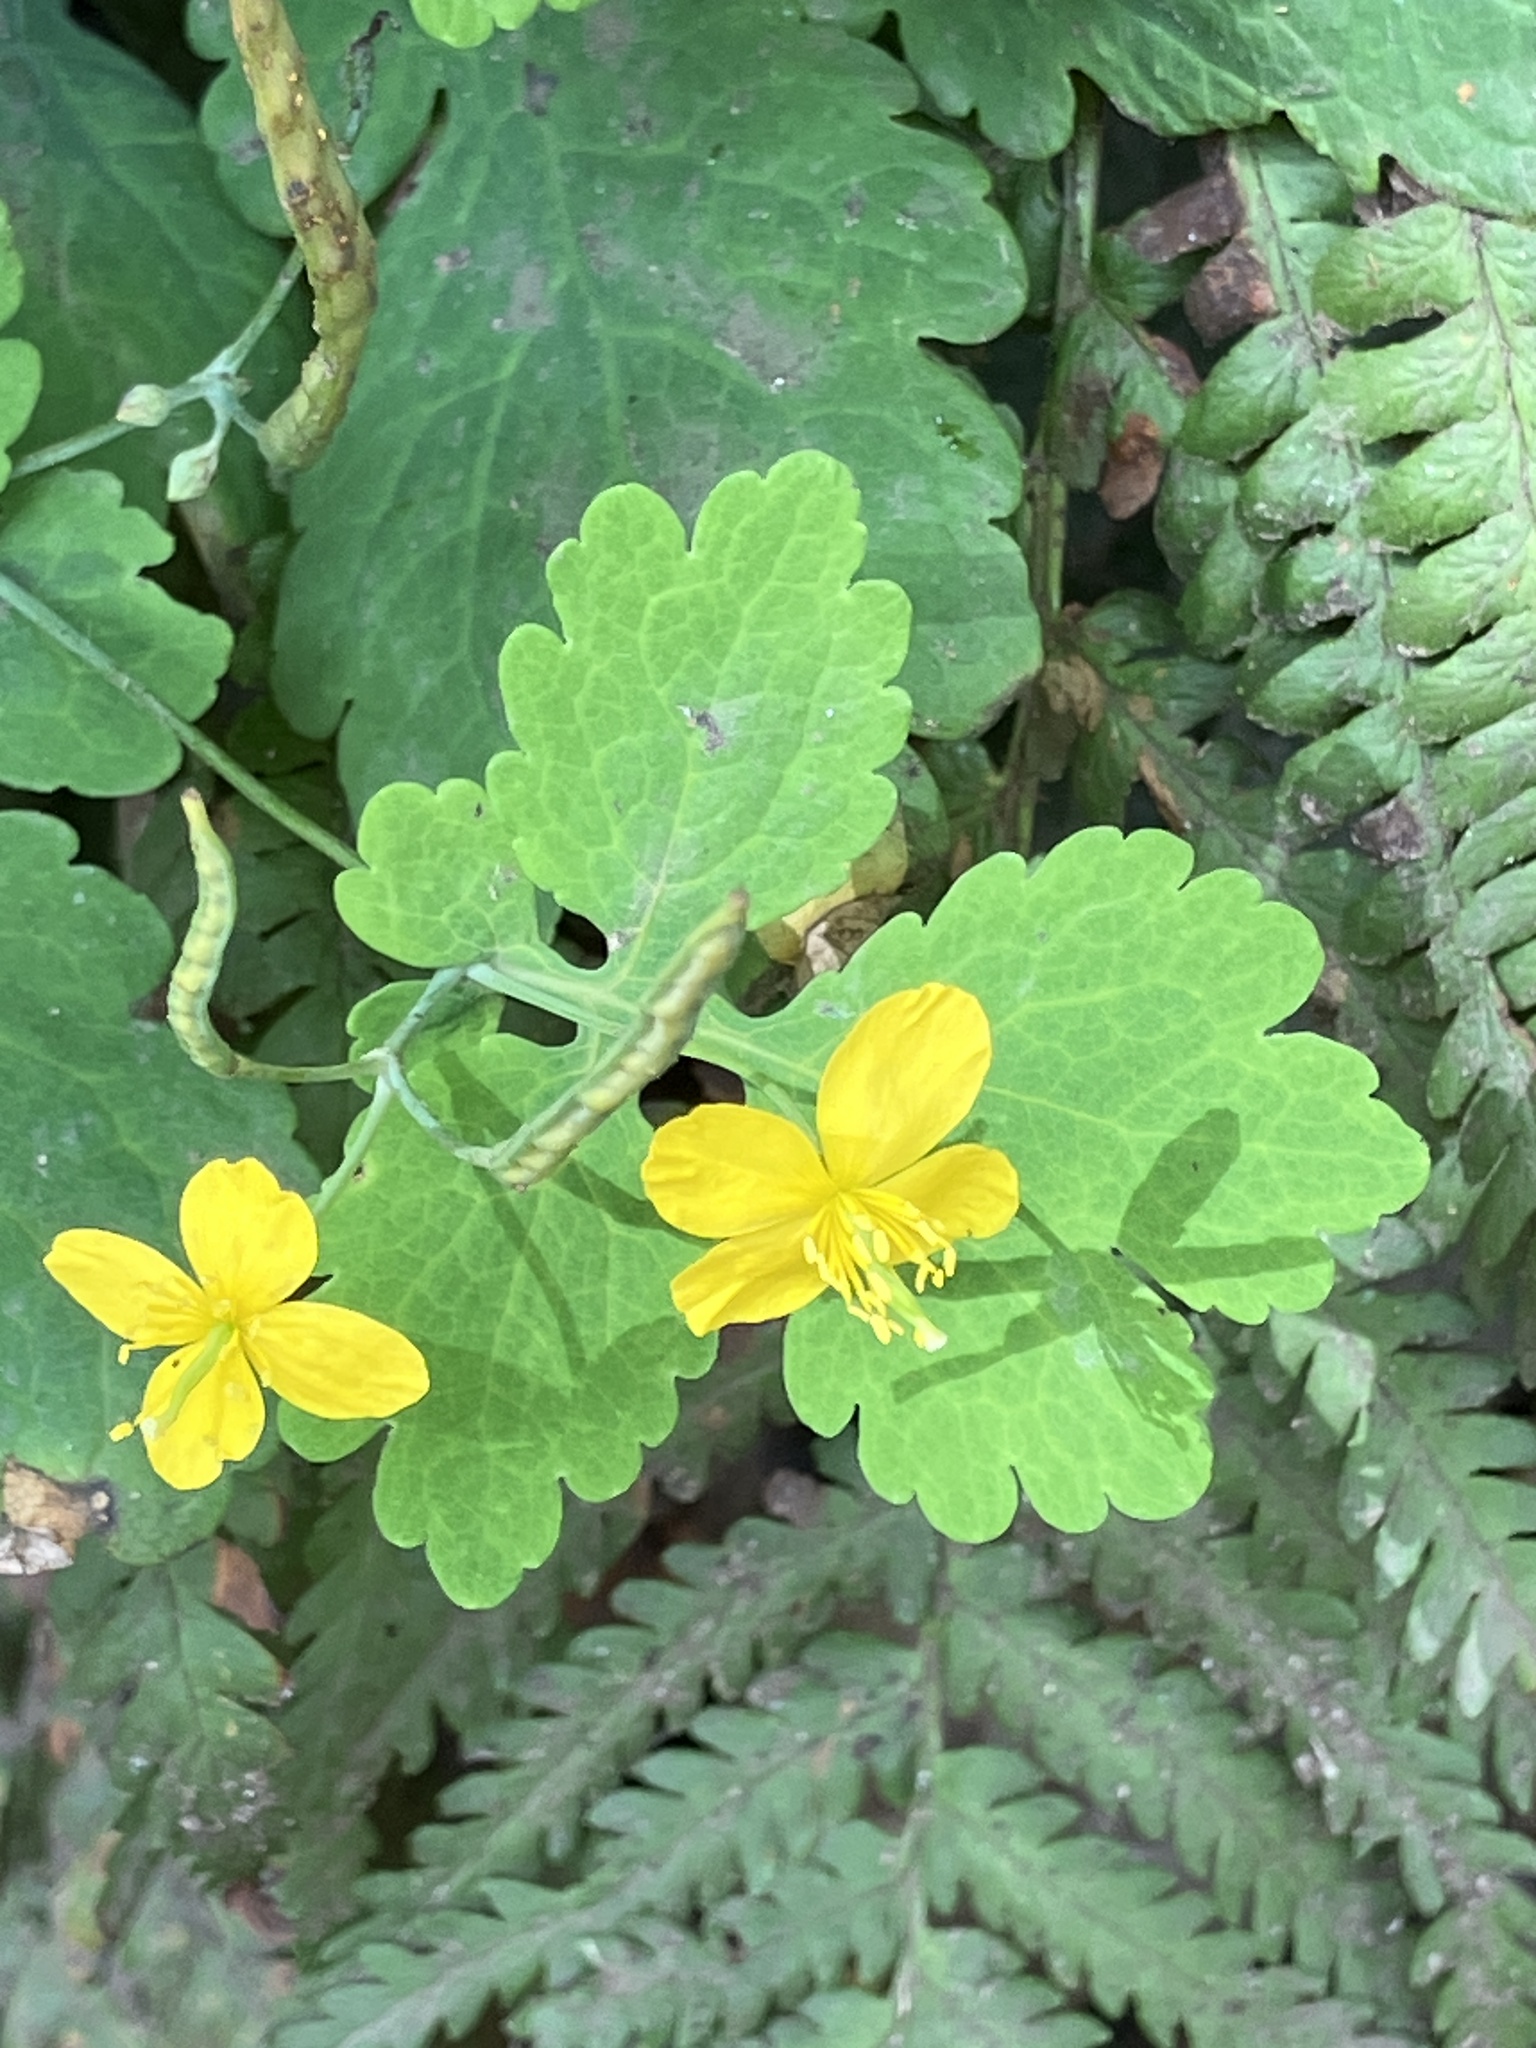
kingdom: Plantae
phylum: Tracheophyta
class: Magnoliopsida
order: Ranunculales
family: Papaveraceae
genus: Chelidonium
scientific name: Chelidonium majus
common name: Greater celandine
